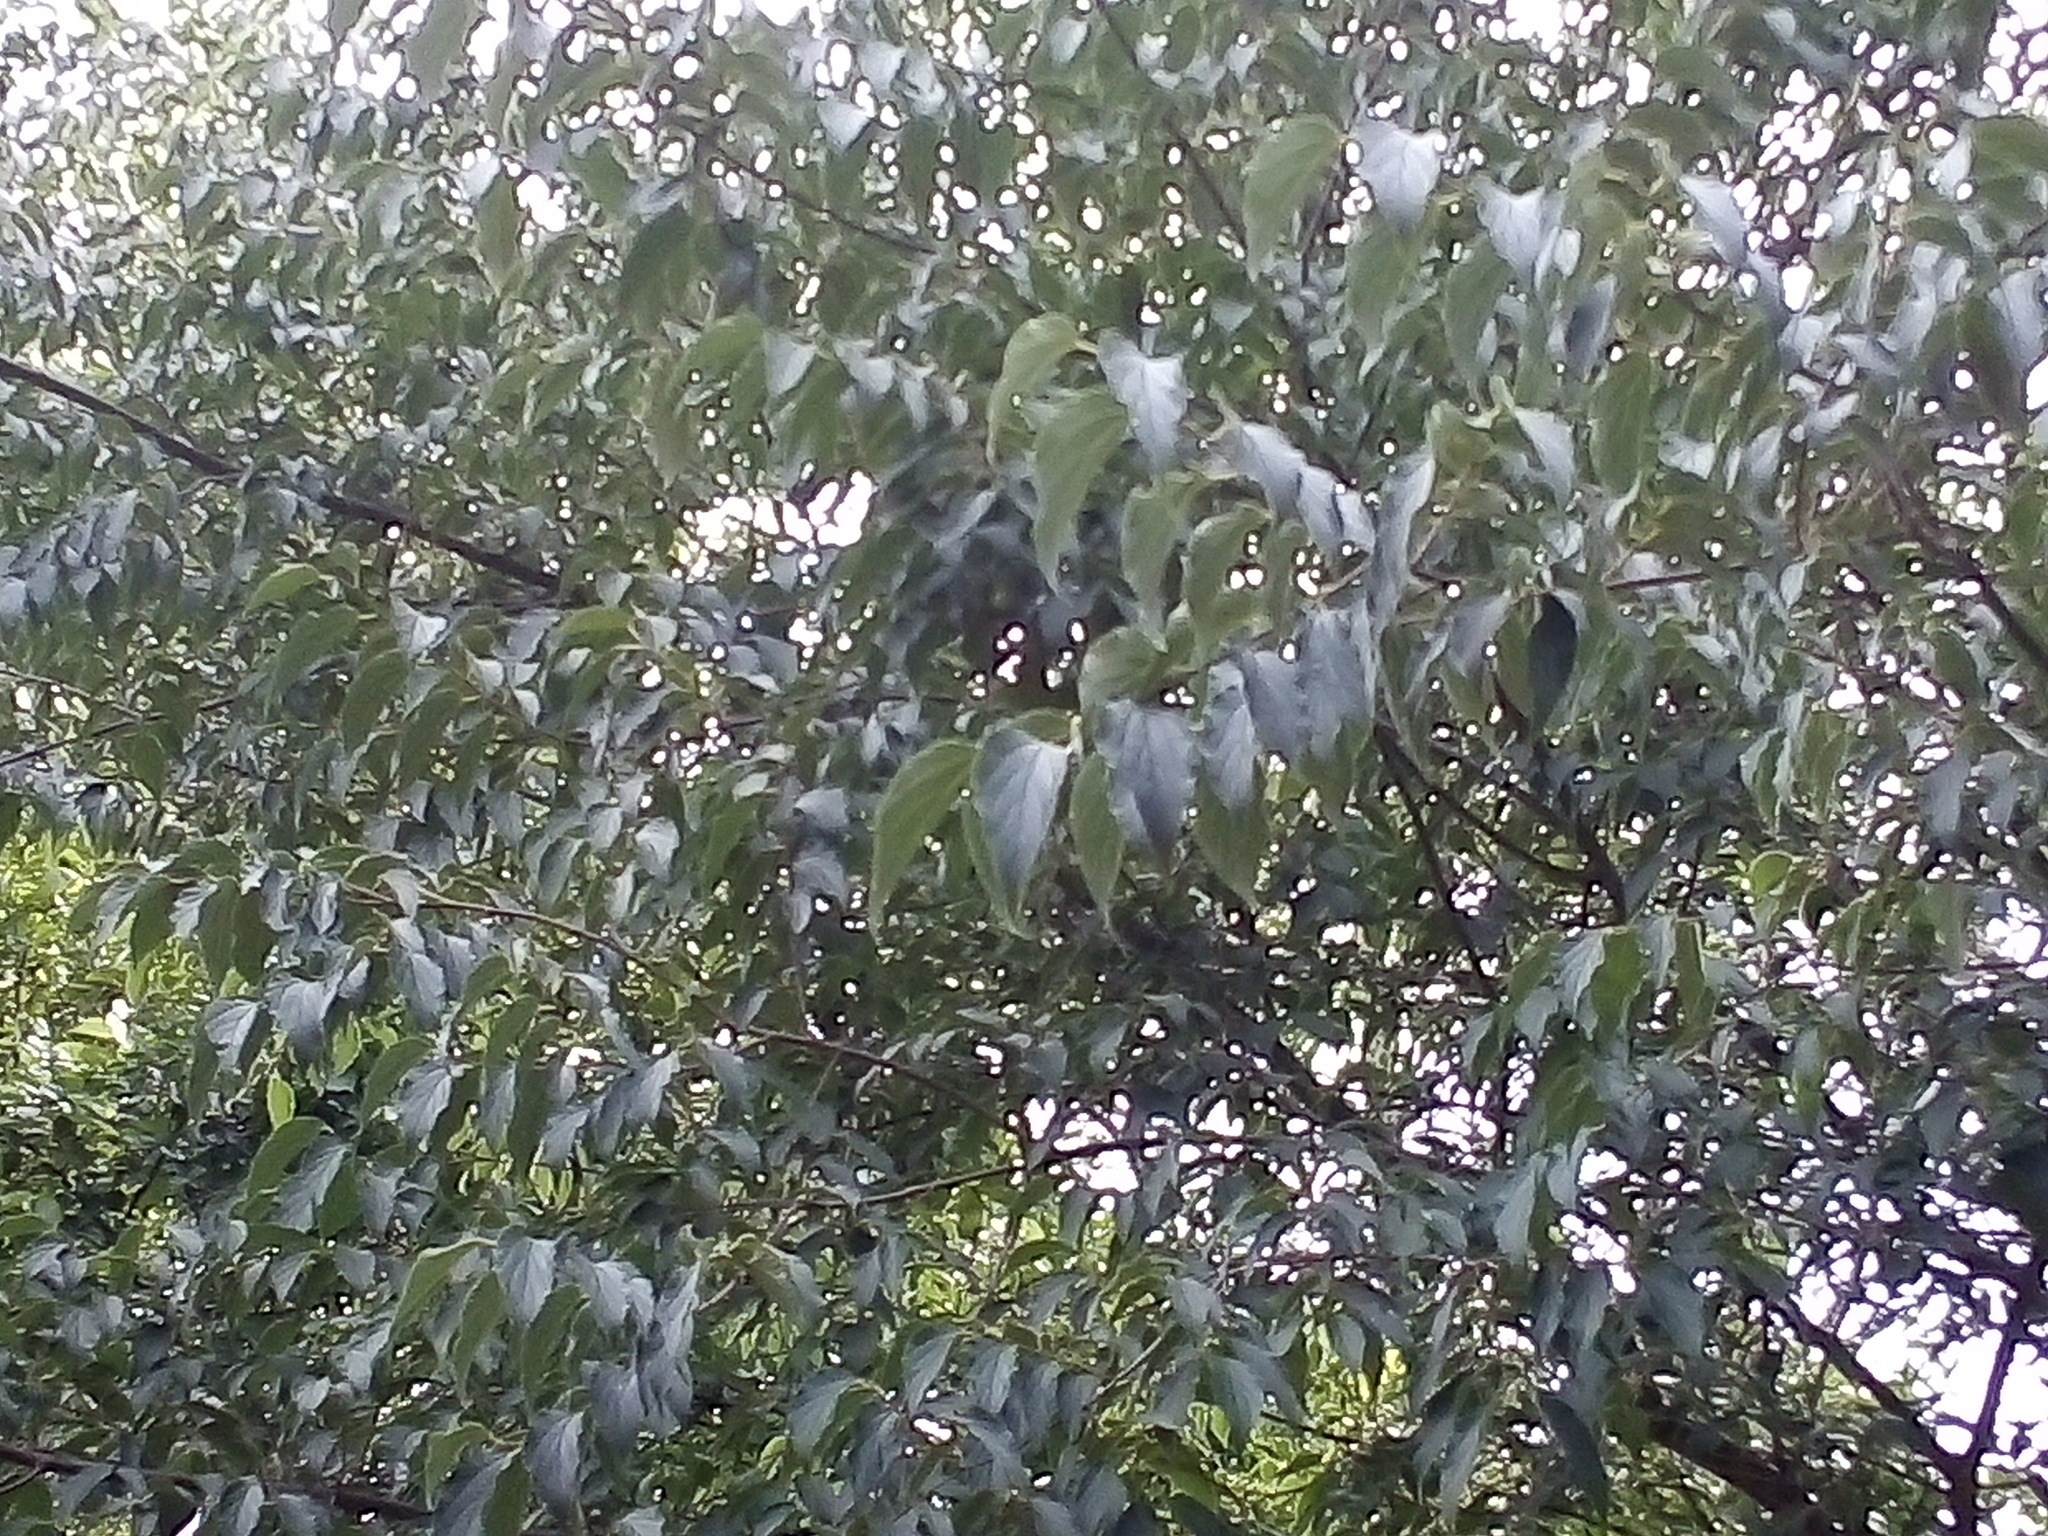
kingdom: Plantae
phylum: Tracheophyta
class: Magnoliopsida
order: Rosales
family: Cannabaceae
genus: Celtis
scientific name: Celtis australis
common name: European hackberry
